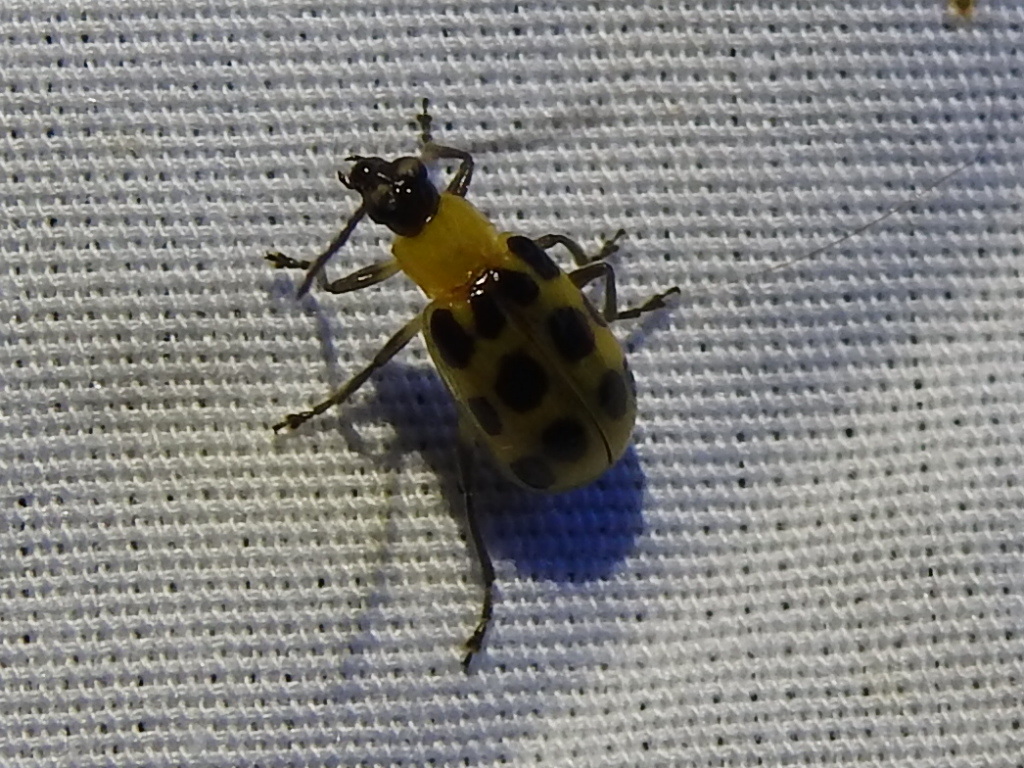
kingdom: Animalia
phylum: Arthropoda
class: Insecta
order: Coleoptera
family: Chrysomelidae
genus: Diabrotica
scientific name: Diabrotica undecimpunctata
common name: Spotted cucumber beetle
